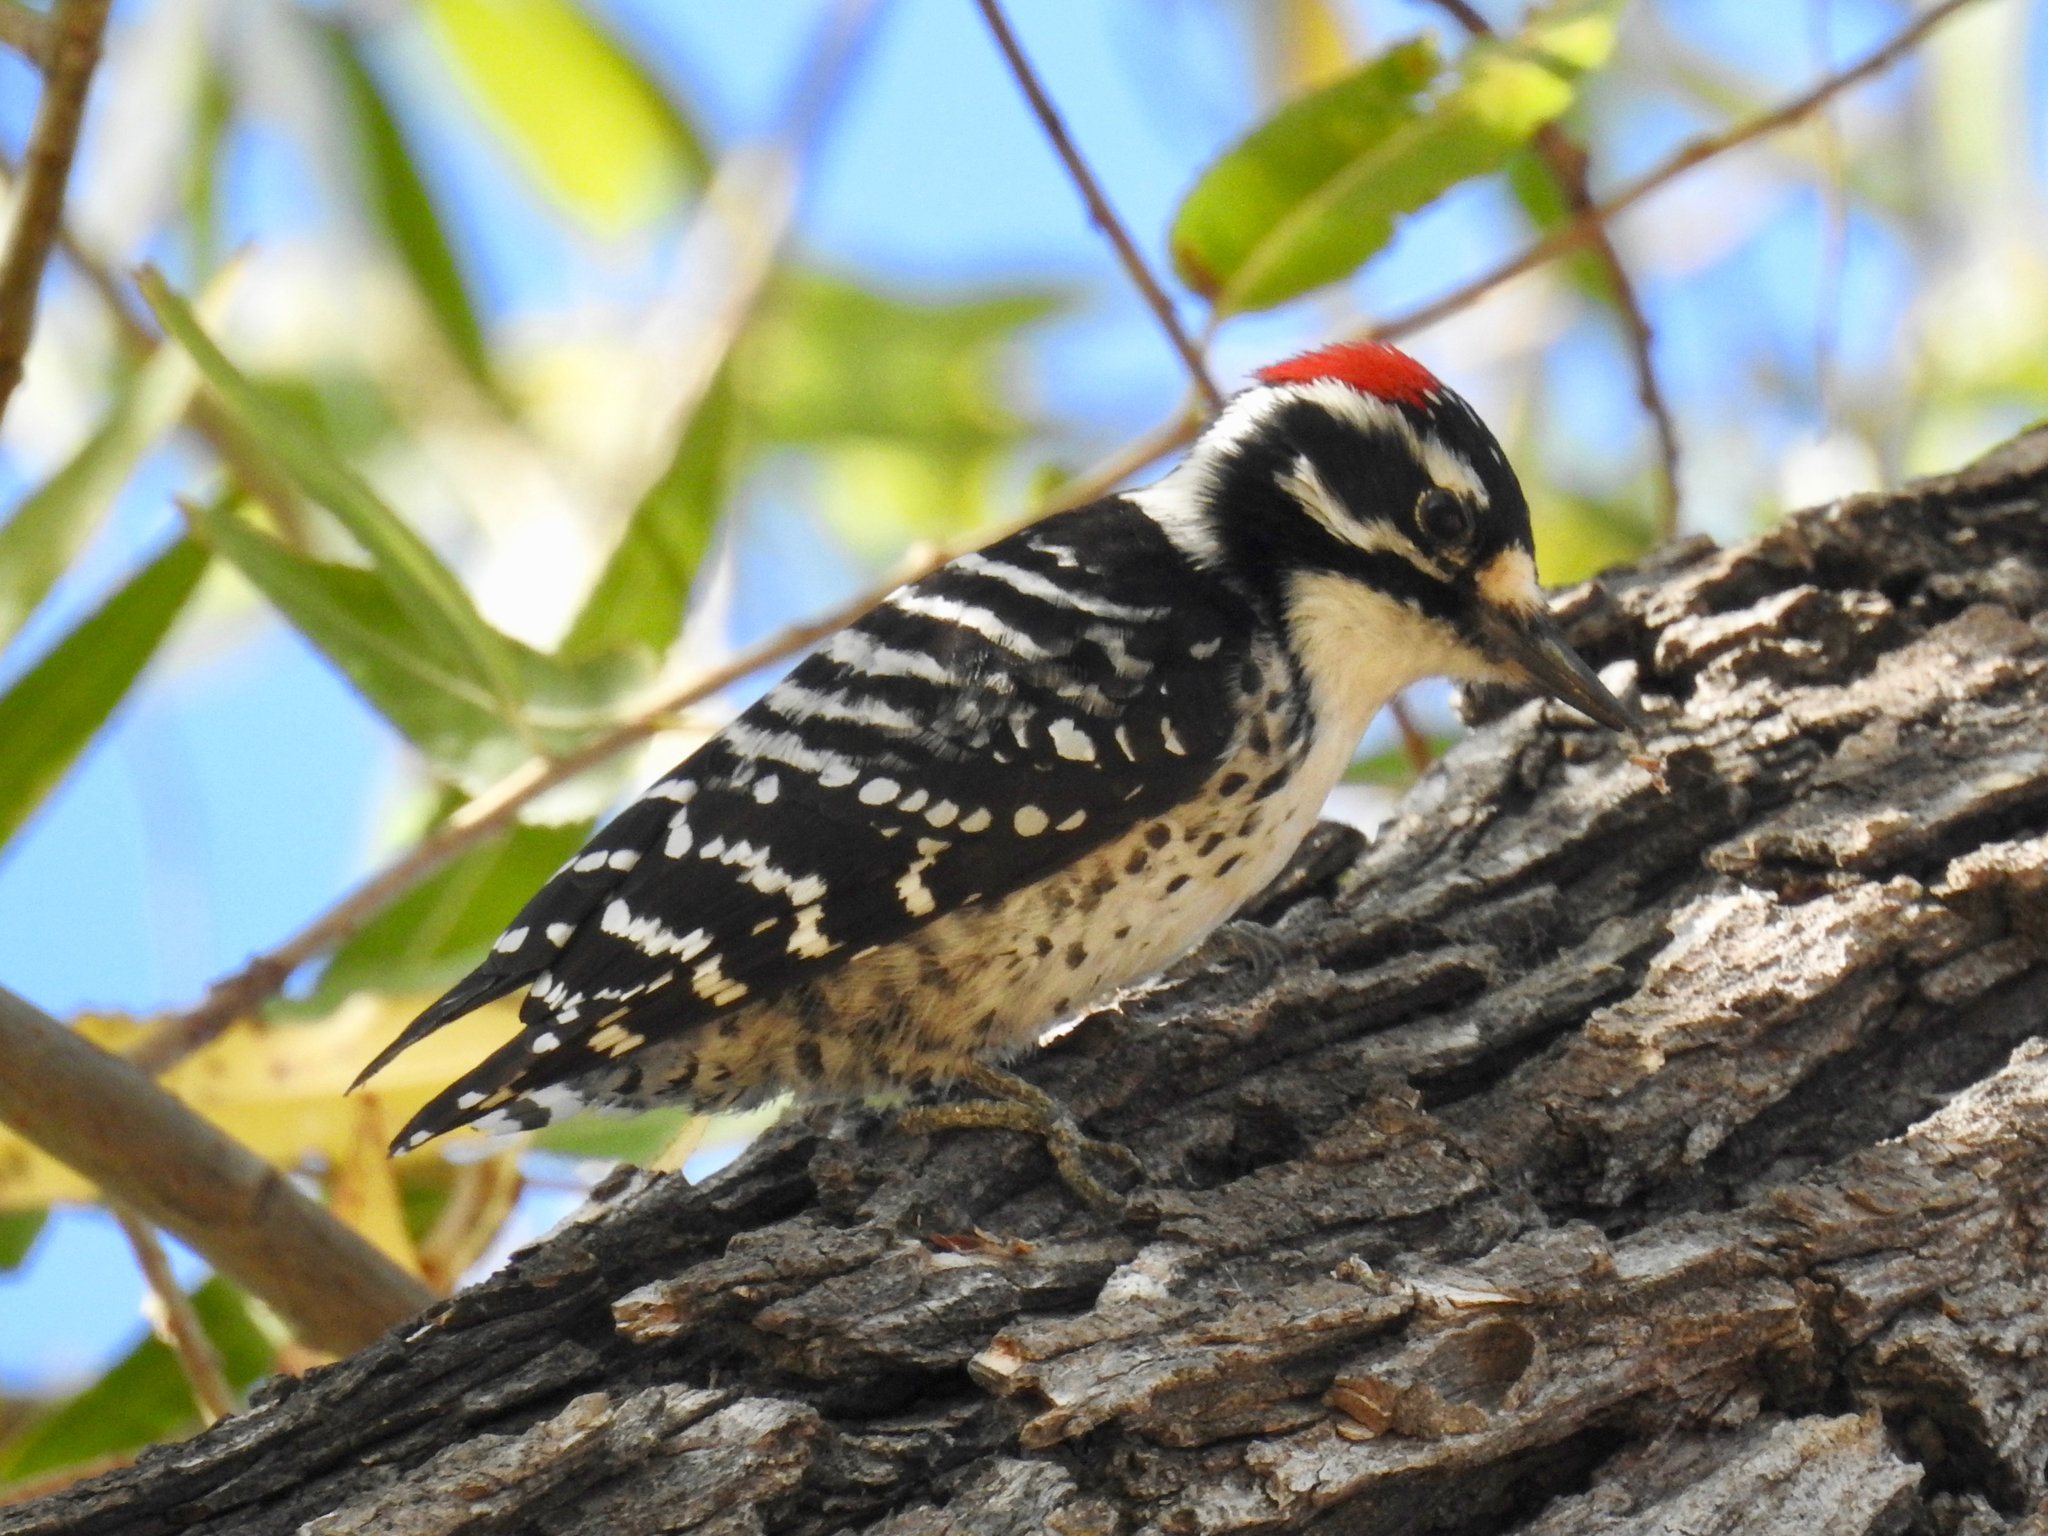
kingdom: Animalia
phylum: Chordata
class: Aves
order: Piciformes
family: Picidae
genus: Dryobates
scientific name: Dryobates nuttallii
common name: Nuttall's woodpecker
